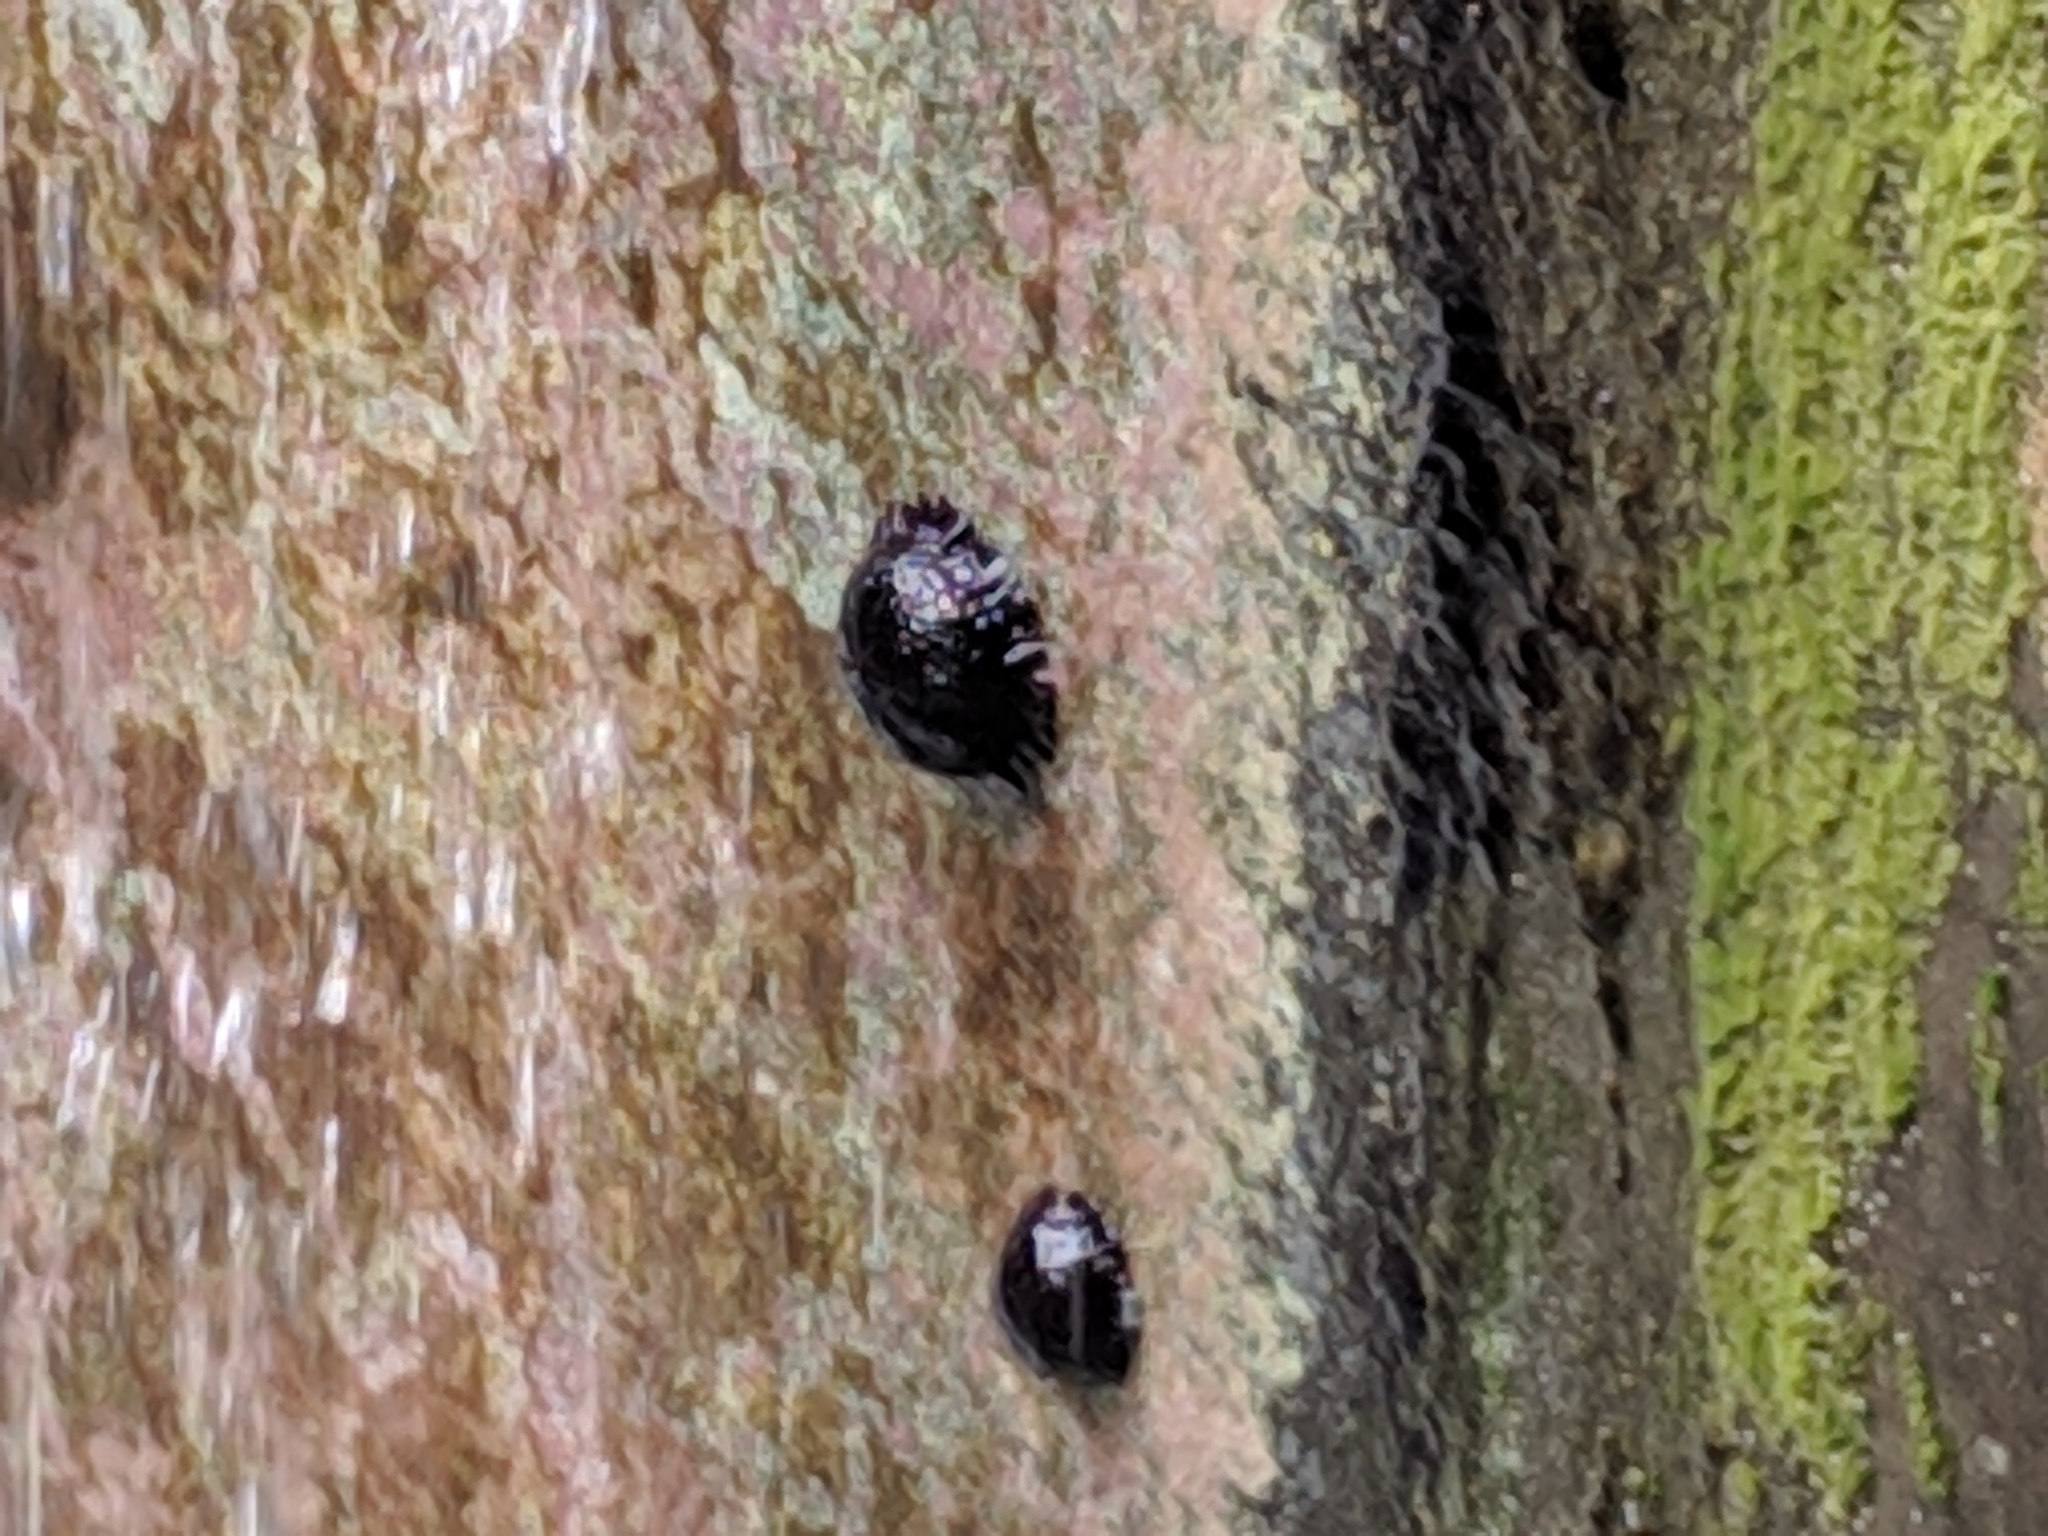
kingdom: Animalia
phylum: Echinodermata
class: Echinoidea
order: Camarodonta
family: Echinometridae
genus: Colobocentrotus
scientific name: Colobocentrotus atratus
